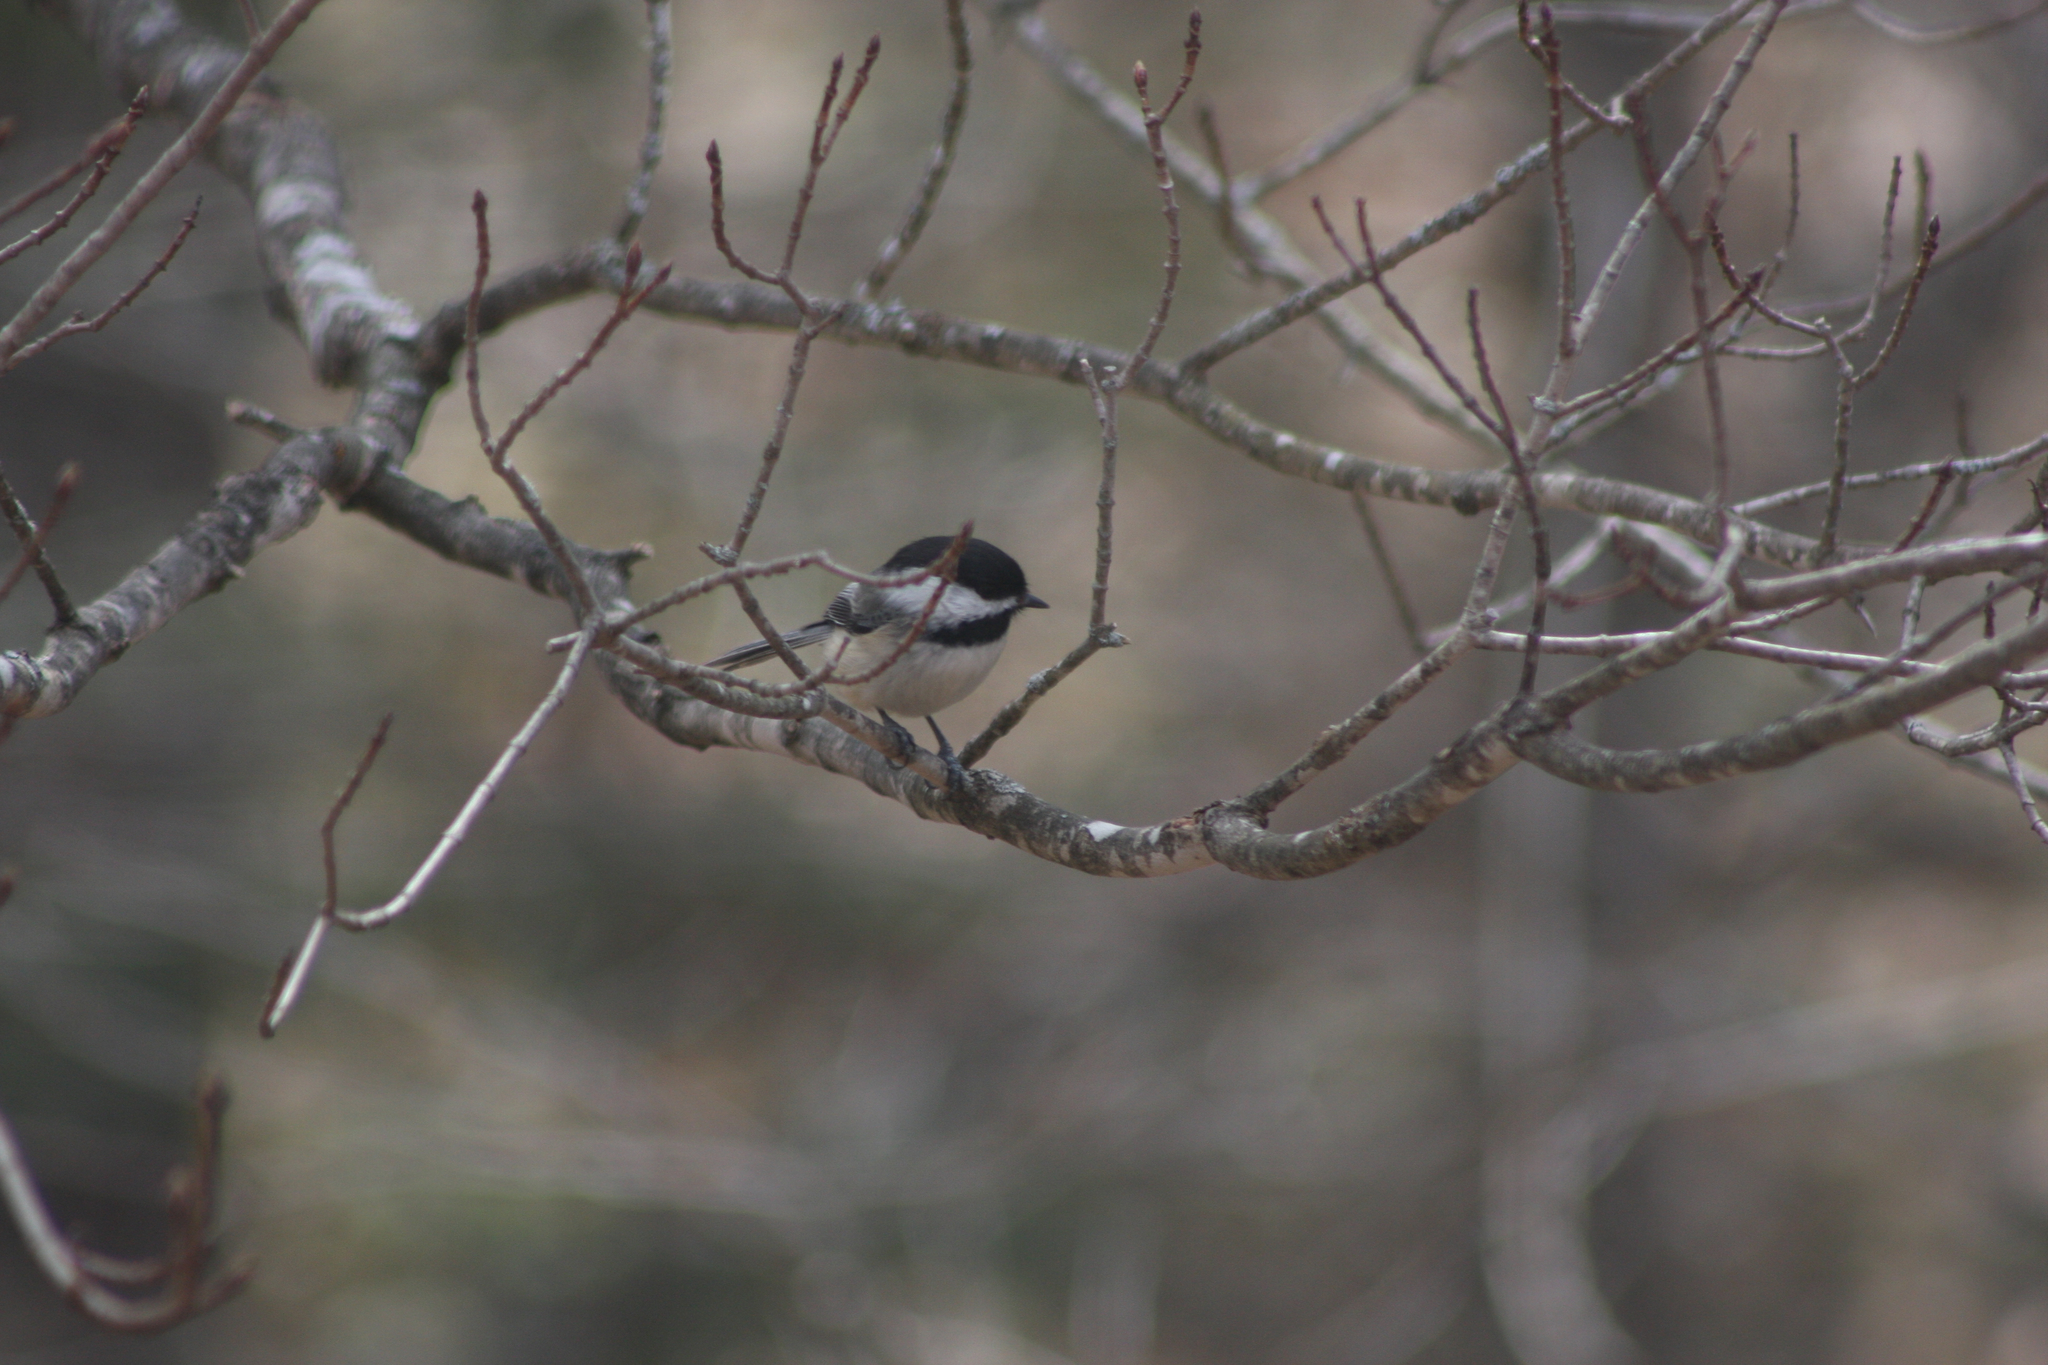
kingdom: Animalia
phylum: Chordata
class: Aves
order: Passeriformes
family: Paridae
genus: Poecile
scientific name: Poecile atricapillus
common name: Black-capped chickadee
